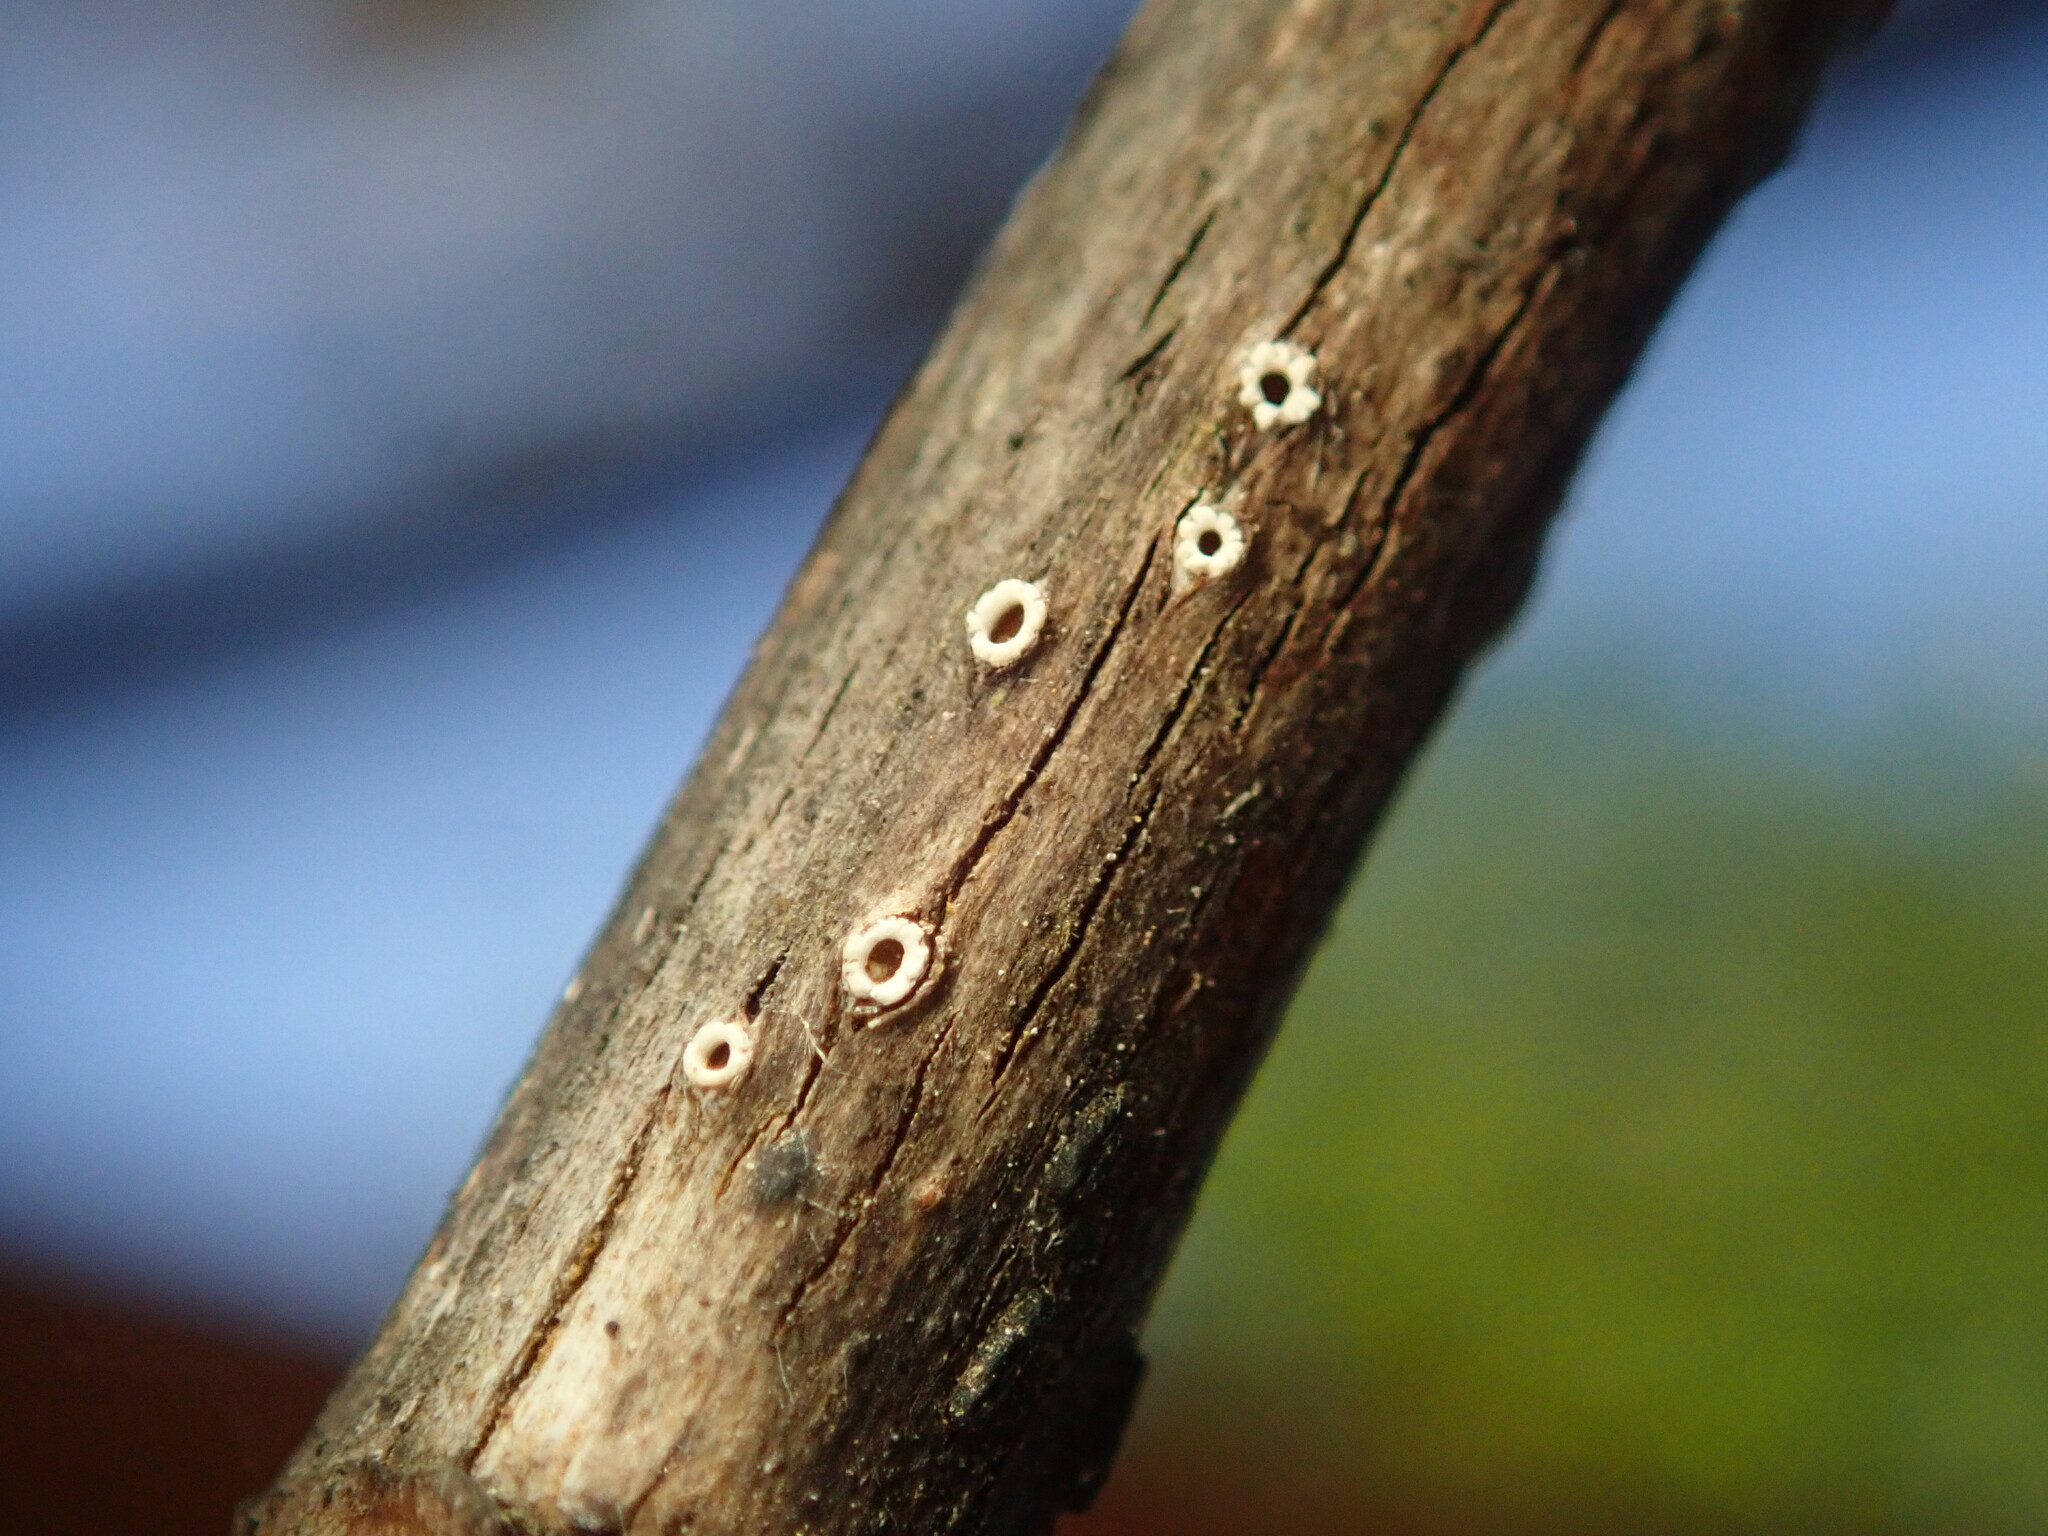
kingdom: Fungi
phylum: Ascomycota
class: Lecanoromycetes
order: Ostropales
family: Stictidaceae
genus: Stictis
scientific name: Stictis radiata
